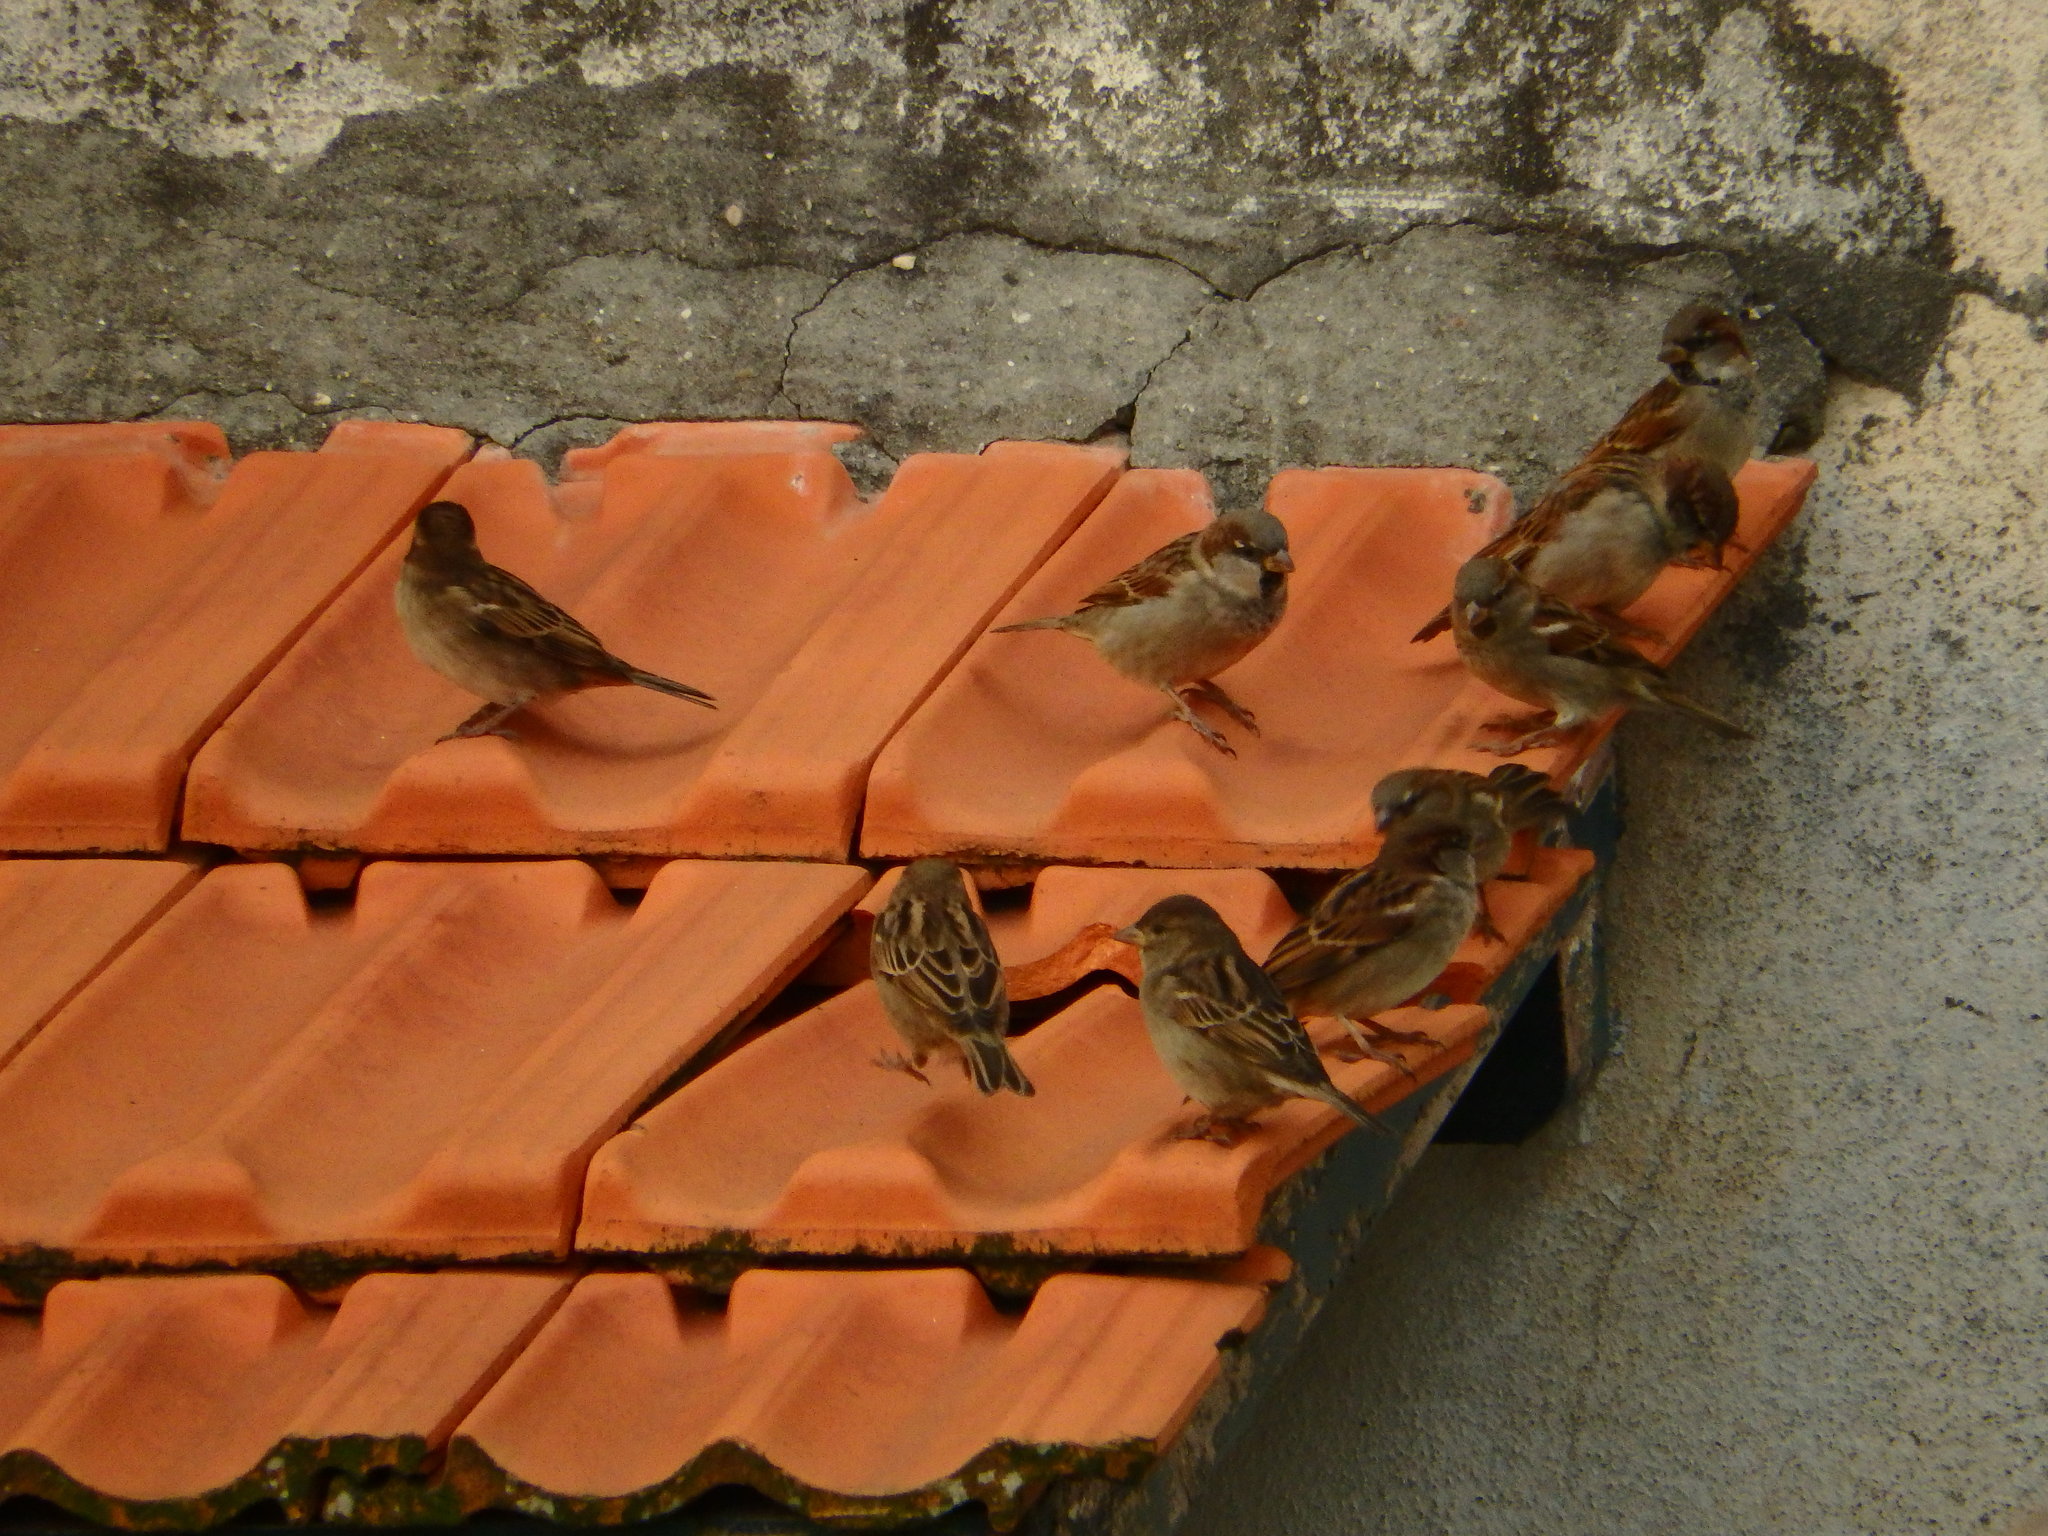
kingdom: Animalia
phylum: Chordata
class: Aves
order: Passeriformes
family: Passeridae
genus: Passer
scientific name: Passer domesticus
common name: House sparrow
